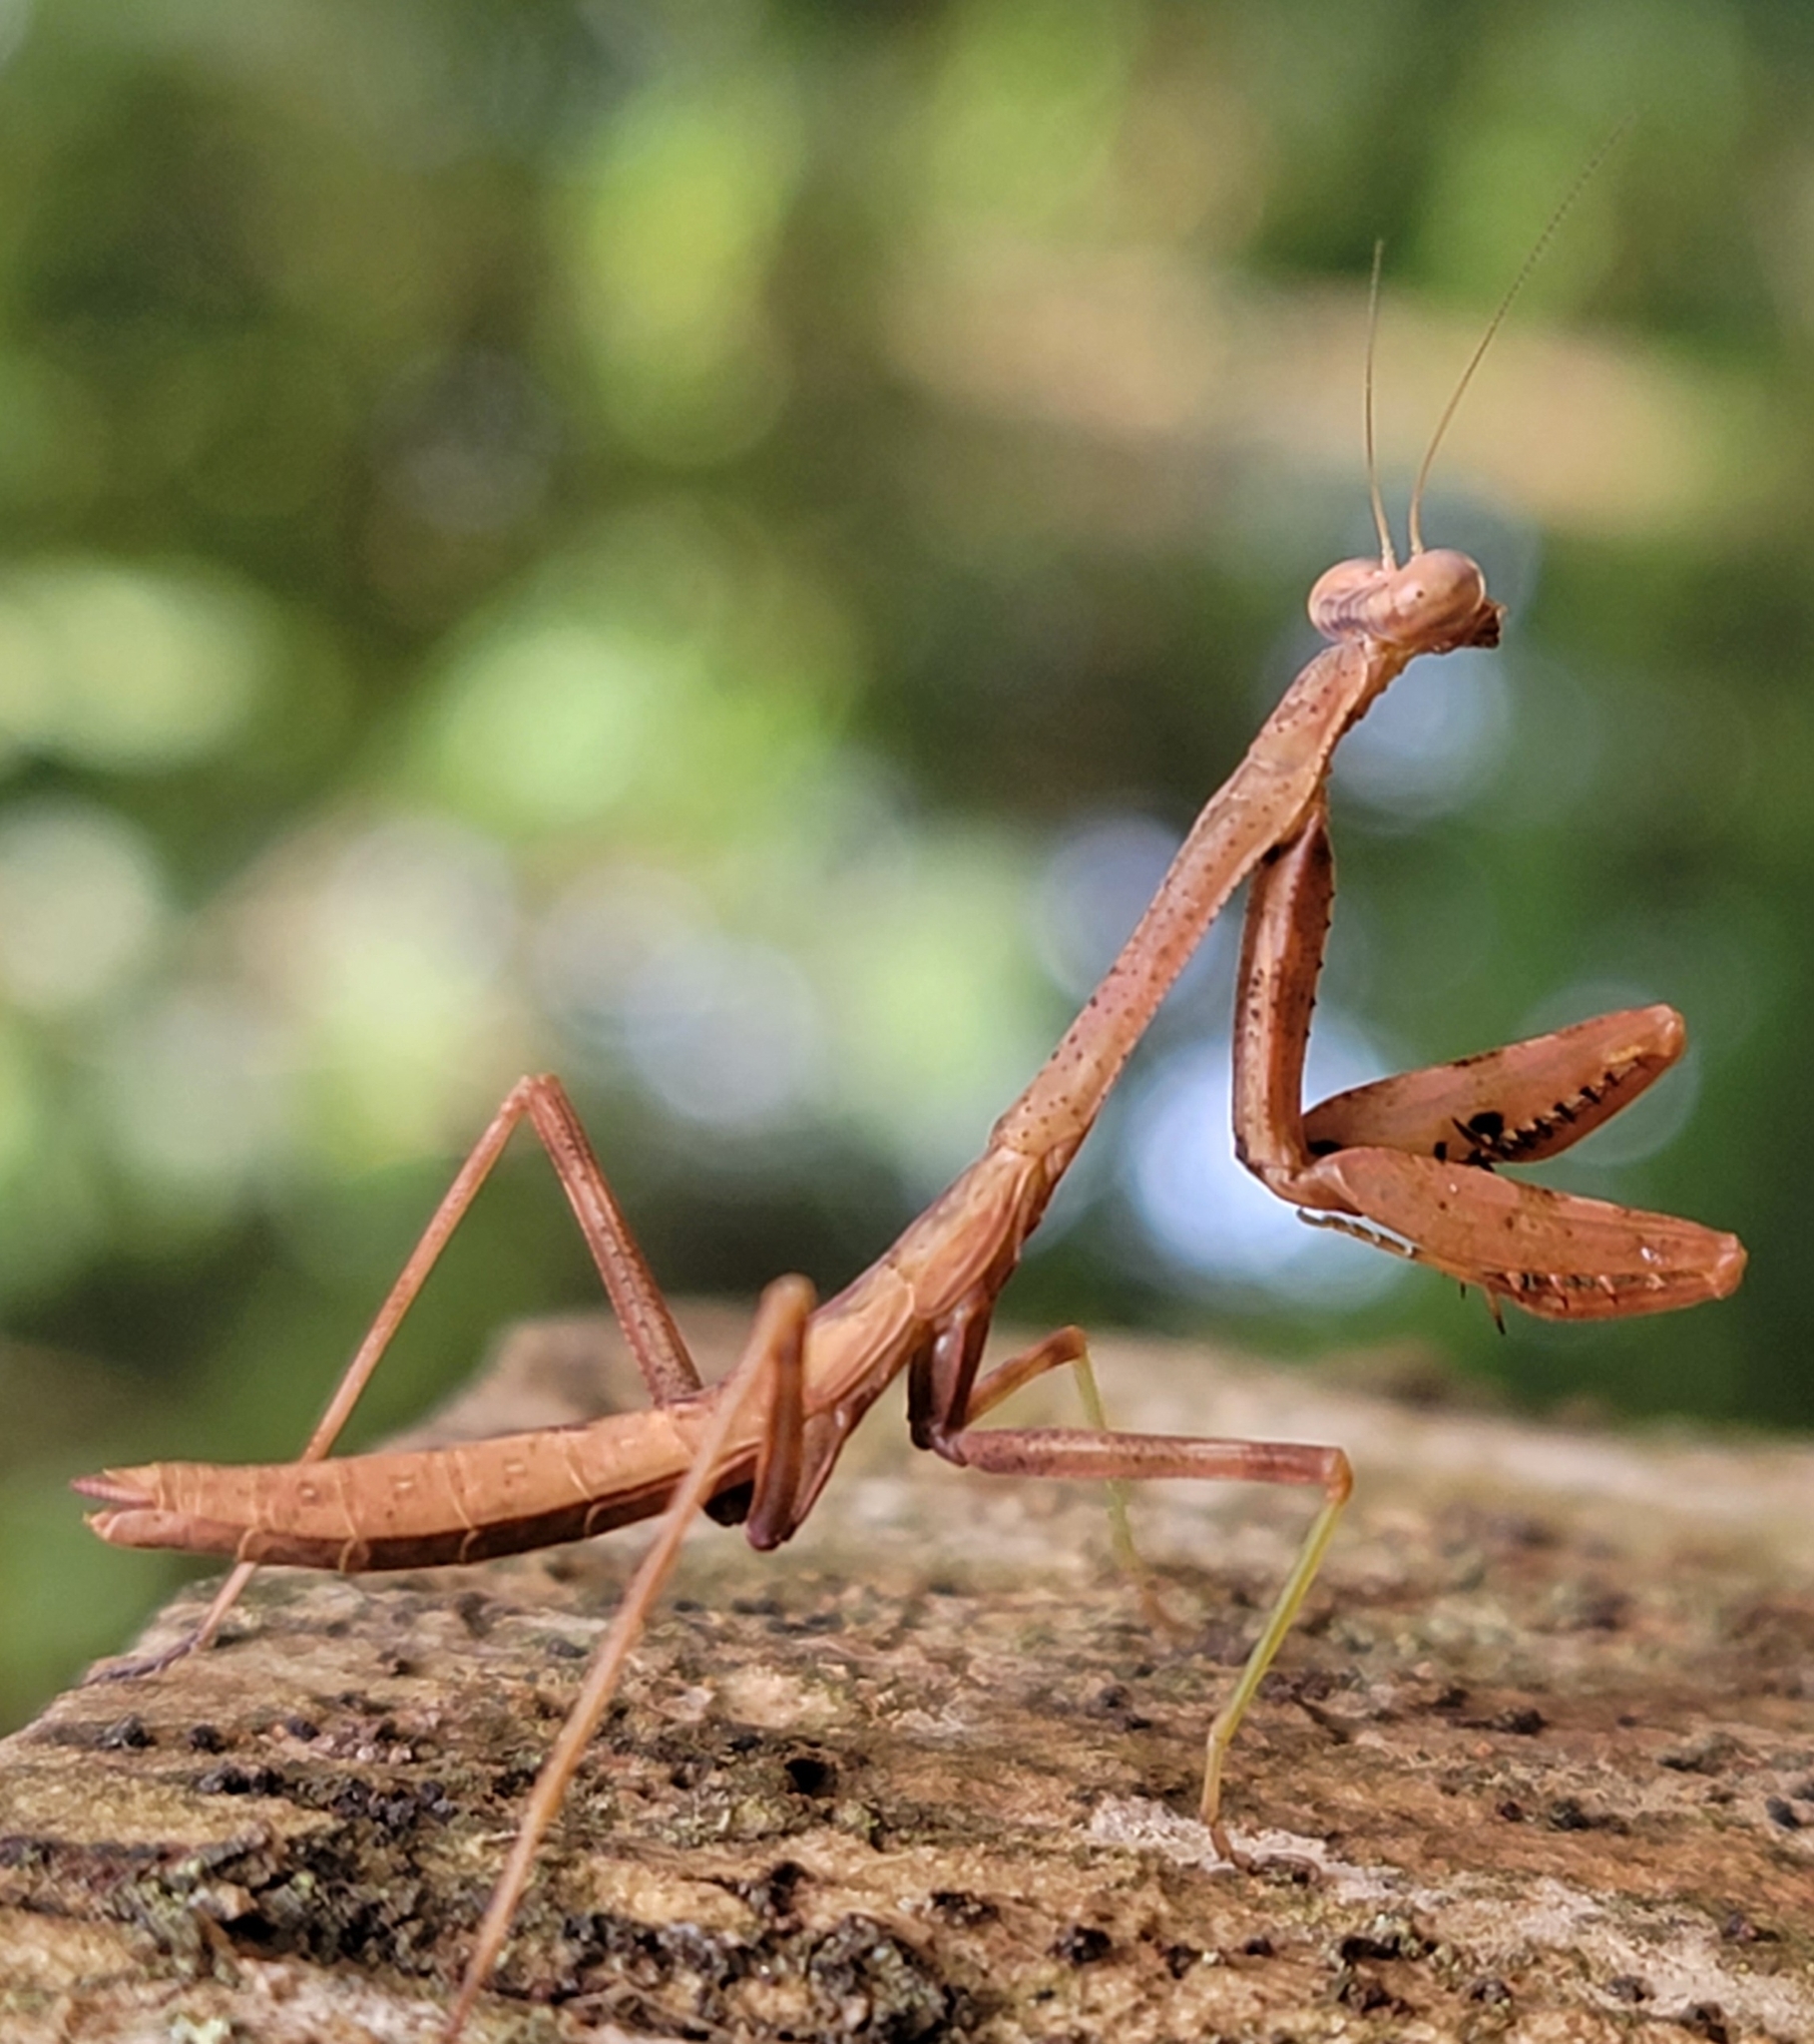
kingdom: Animalia
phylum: Arthropoda
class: Insecta
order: Mantodea
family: Mantidae
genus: Stagmomantis
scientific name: Stagmomantis carolina
